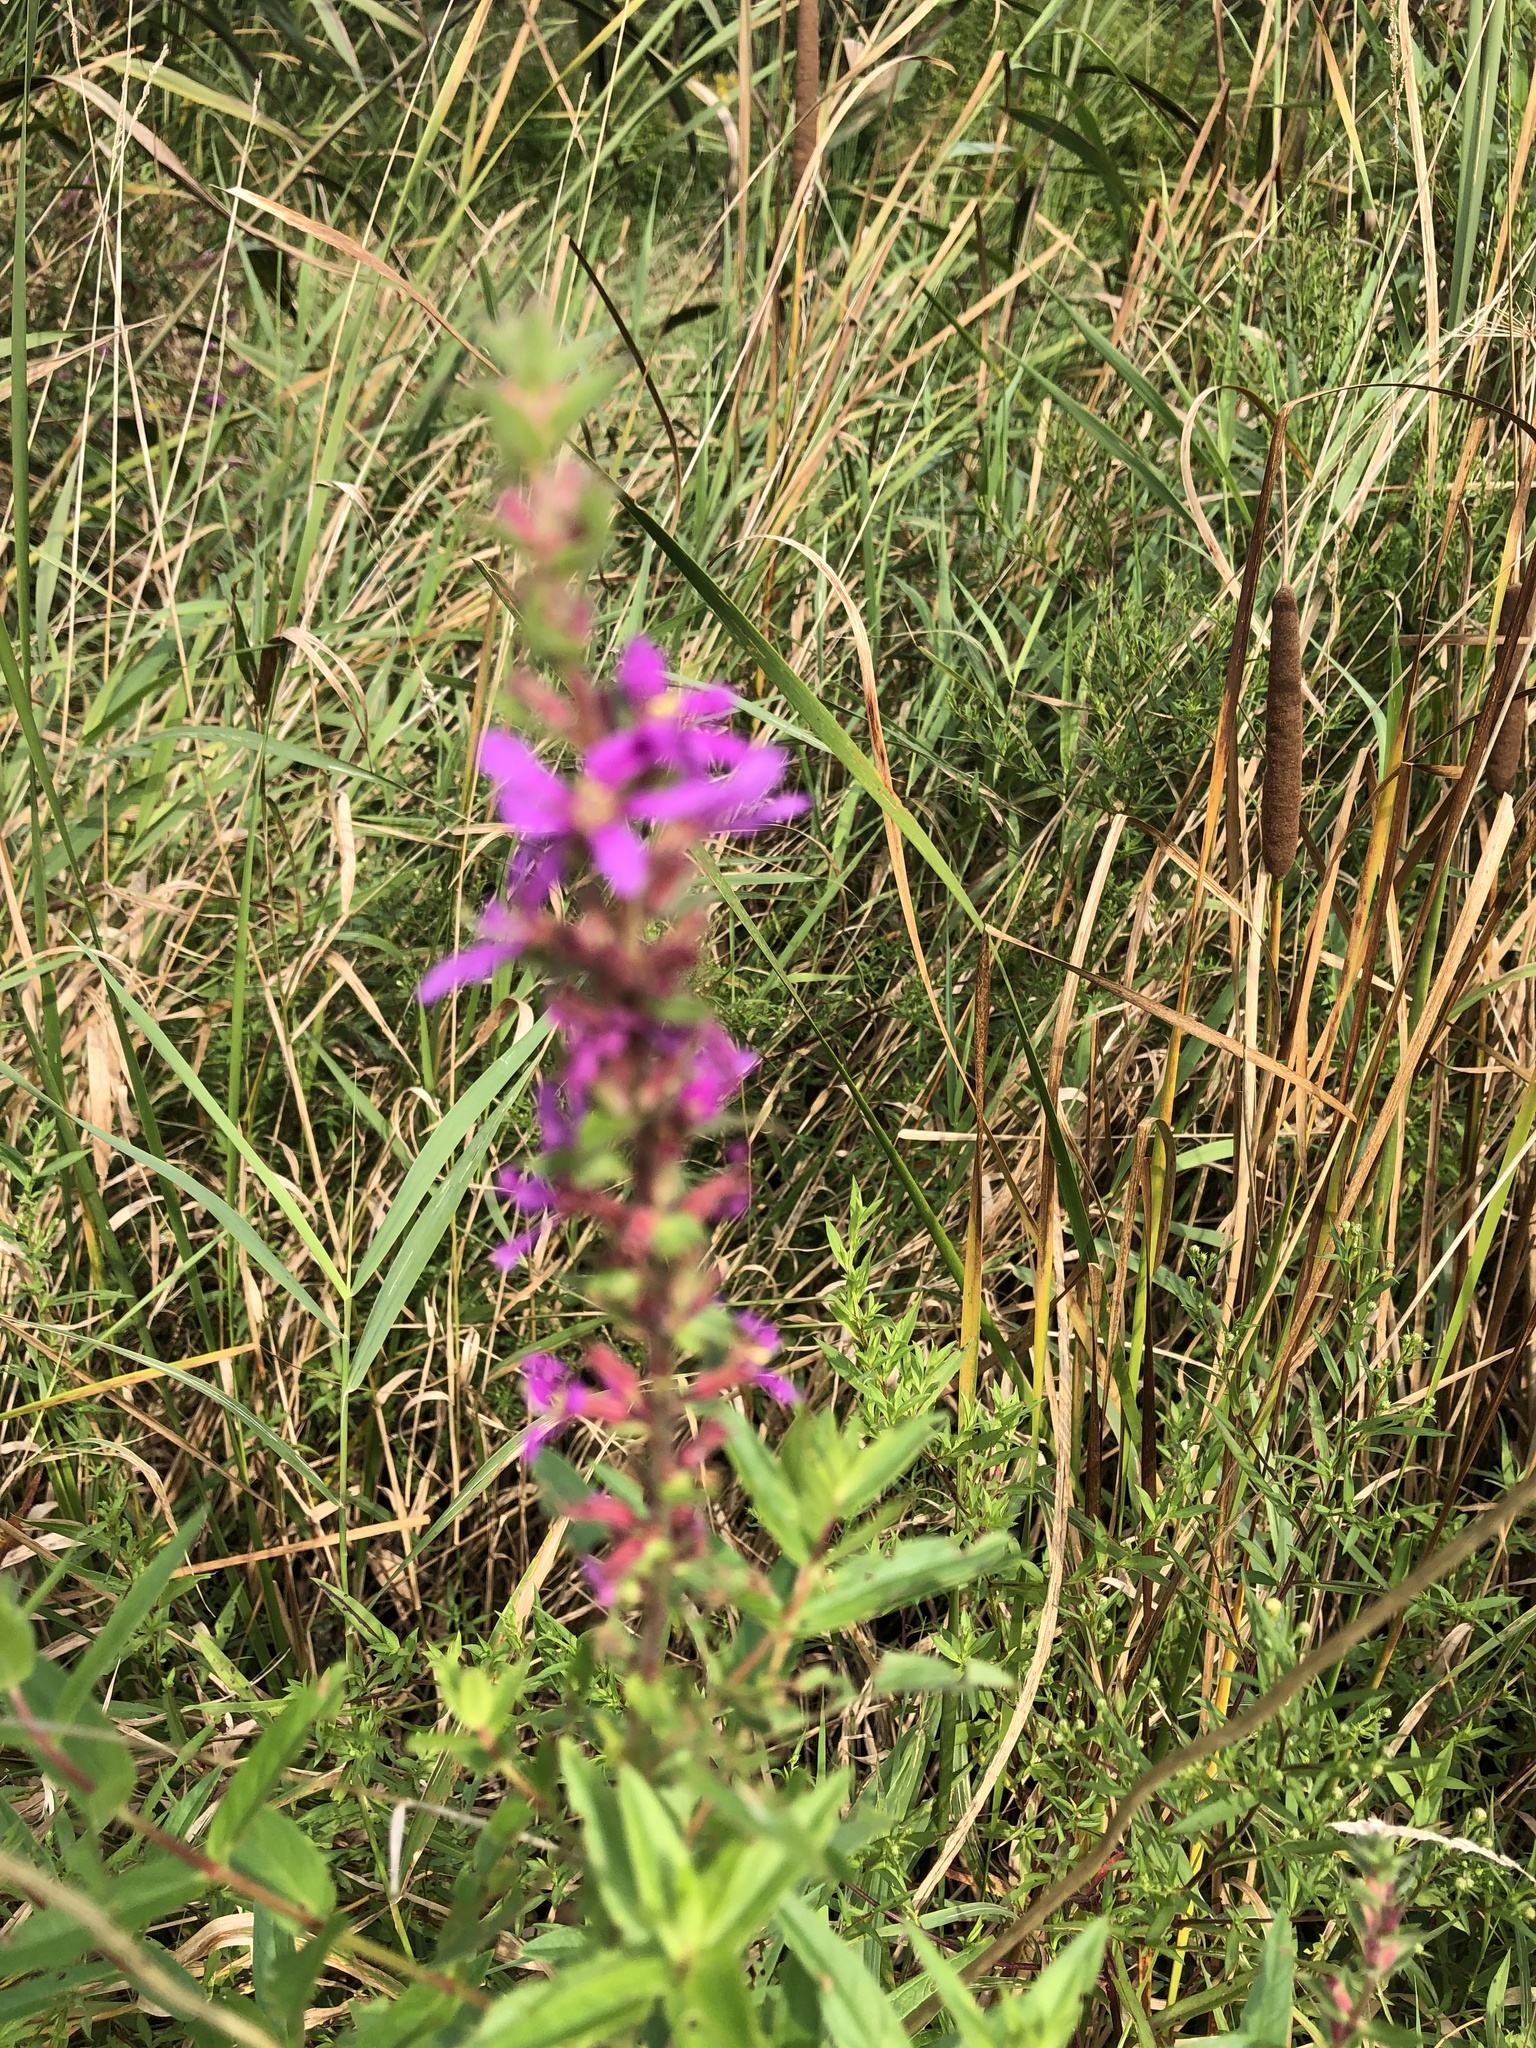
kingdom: Plantae
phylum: Tracheophyta
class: Magnoliopsida
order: Myrtales
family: Lythraceae
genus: Lythrum
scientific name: Lythrum salicaria
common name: Purple loosestrife
